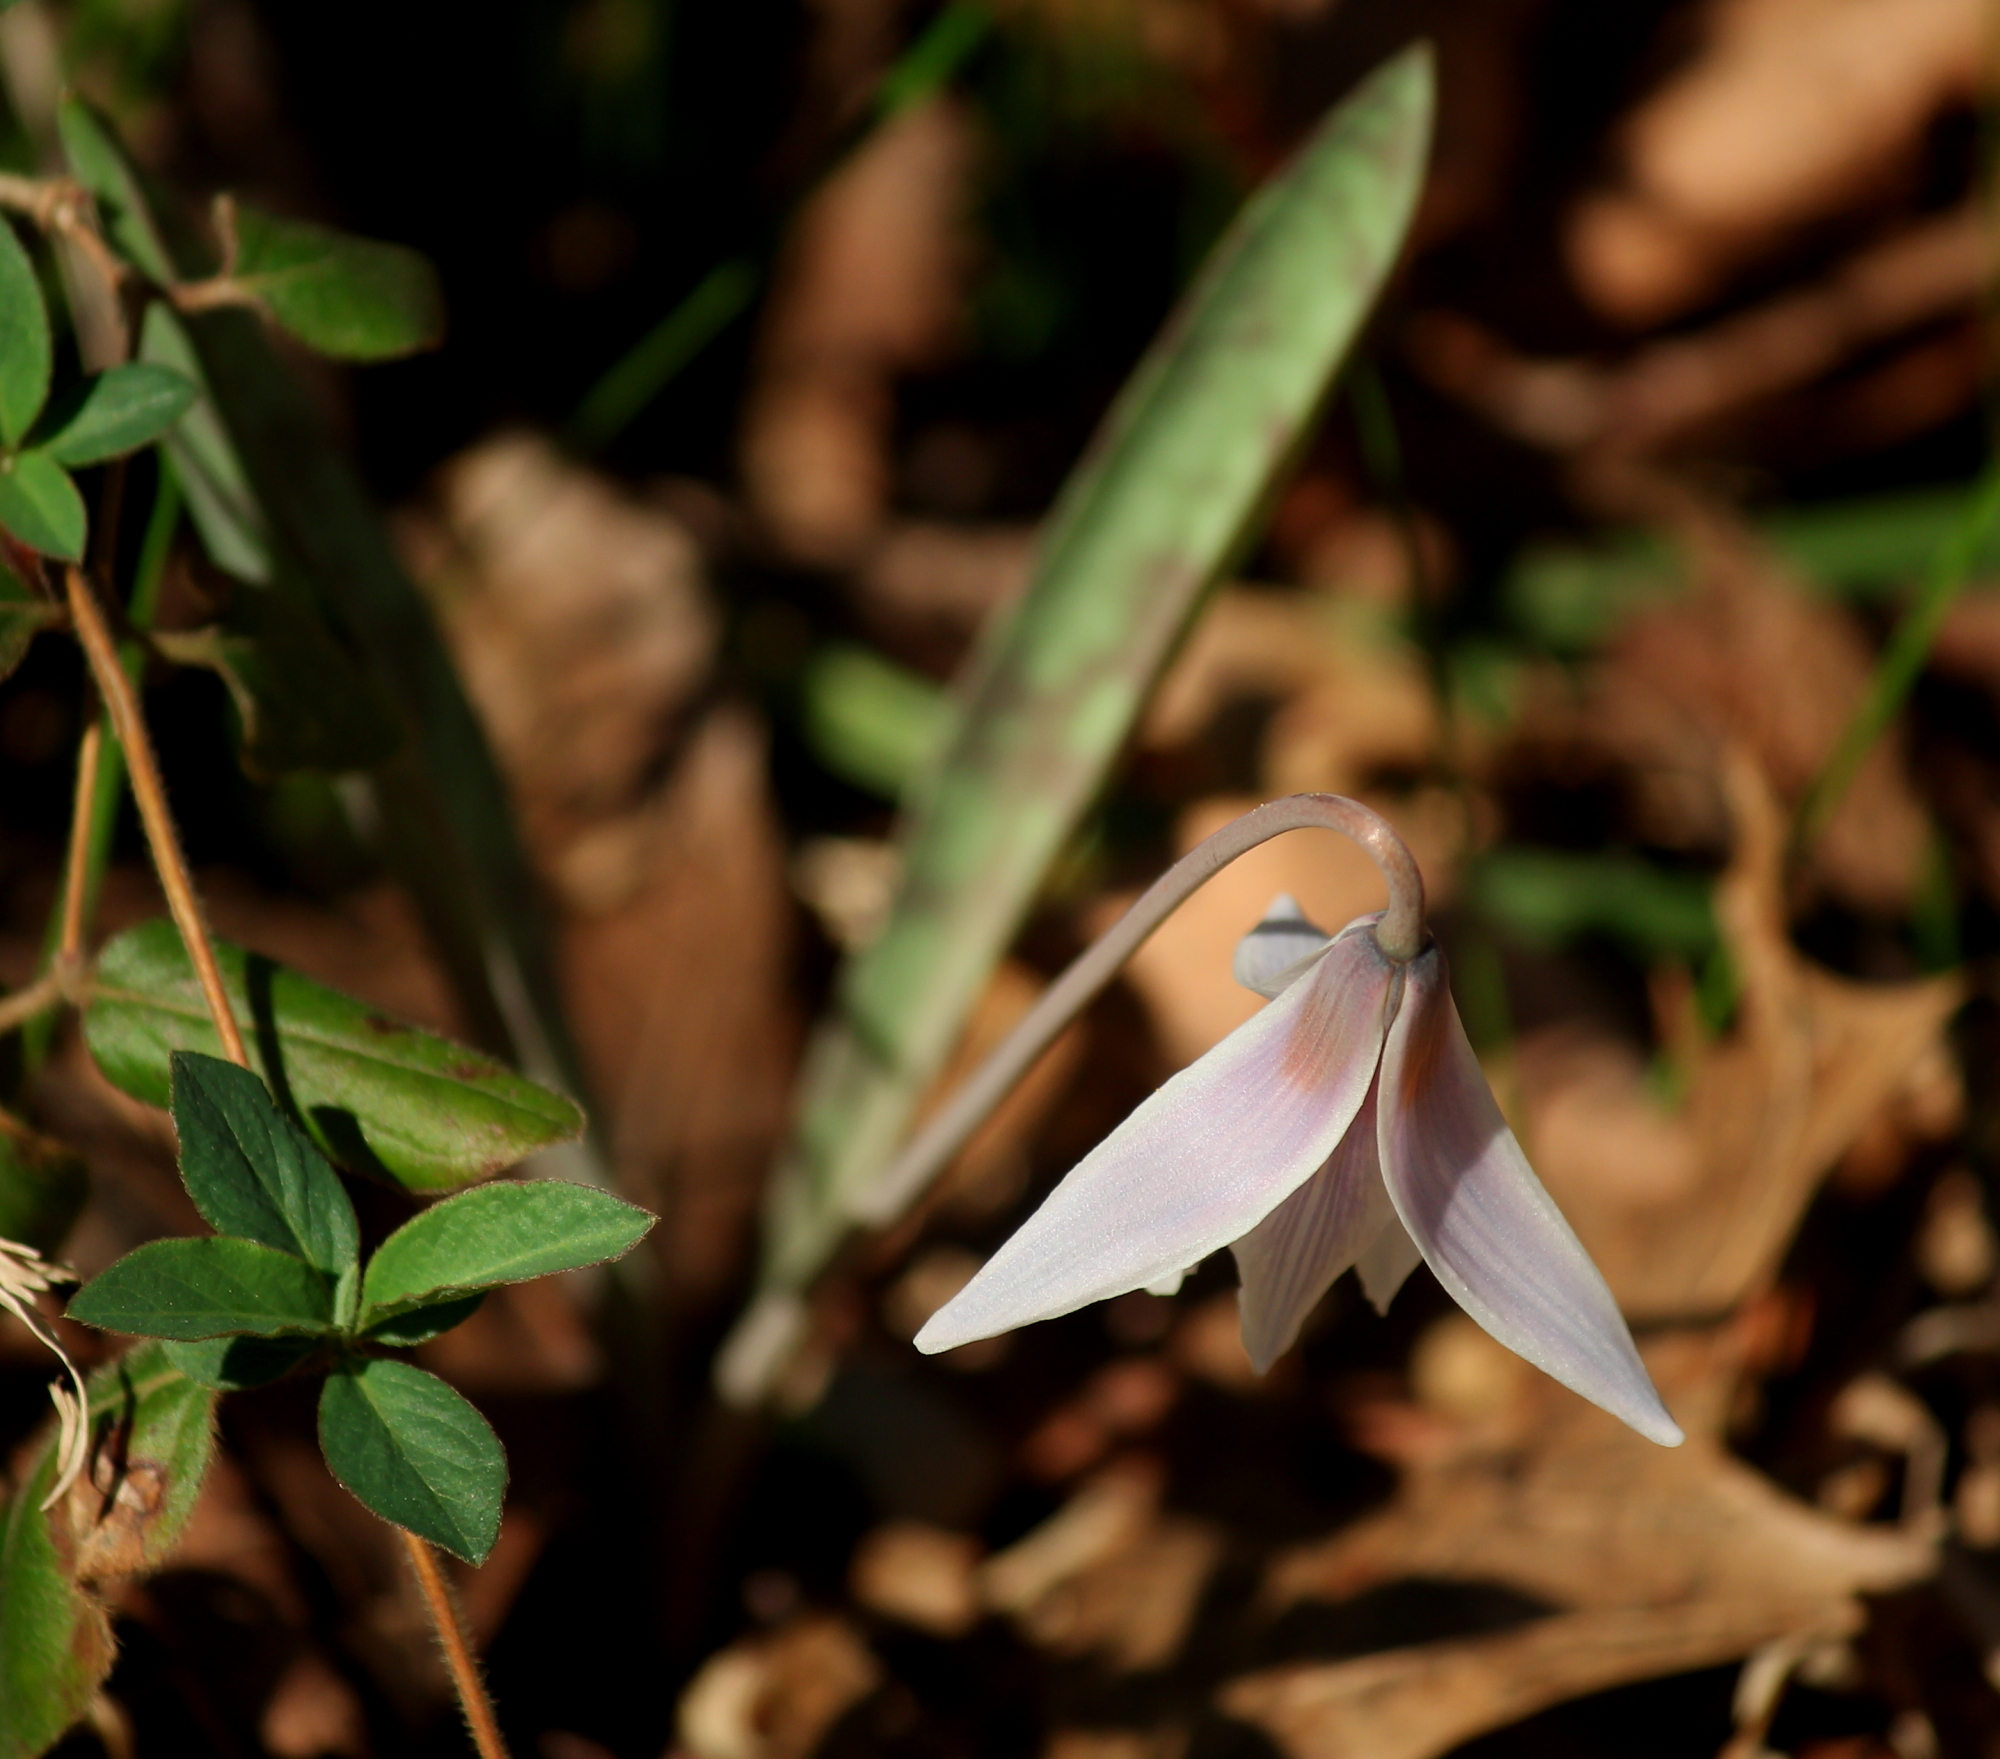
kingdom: Plantae
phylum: Tracheophyta
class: Liliopsida
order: Liliales
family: Liliaceae
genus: Erythronium
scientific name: Erythronium albidum
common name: White trout-lily
